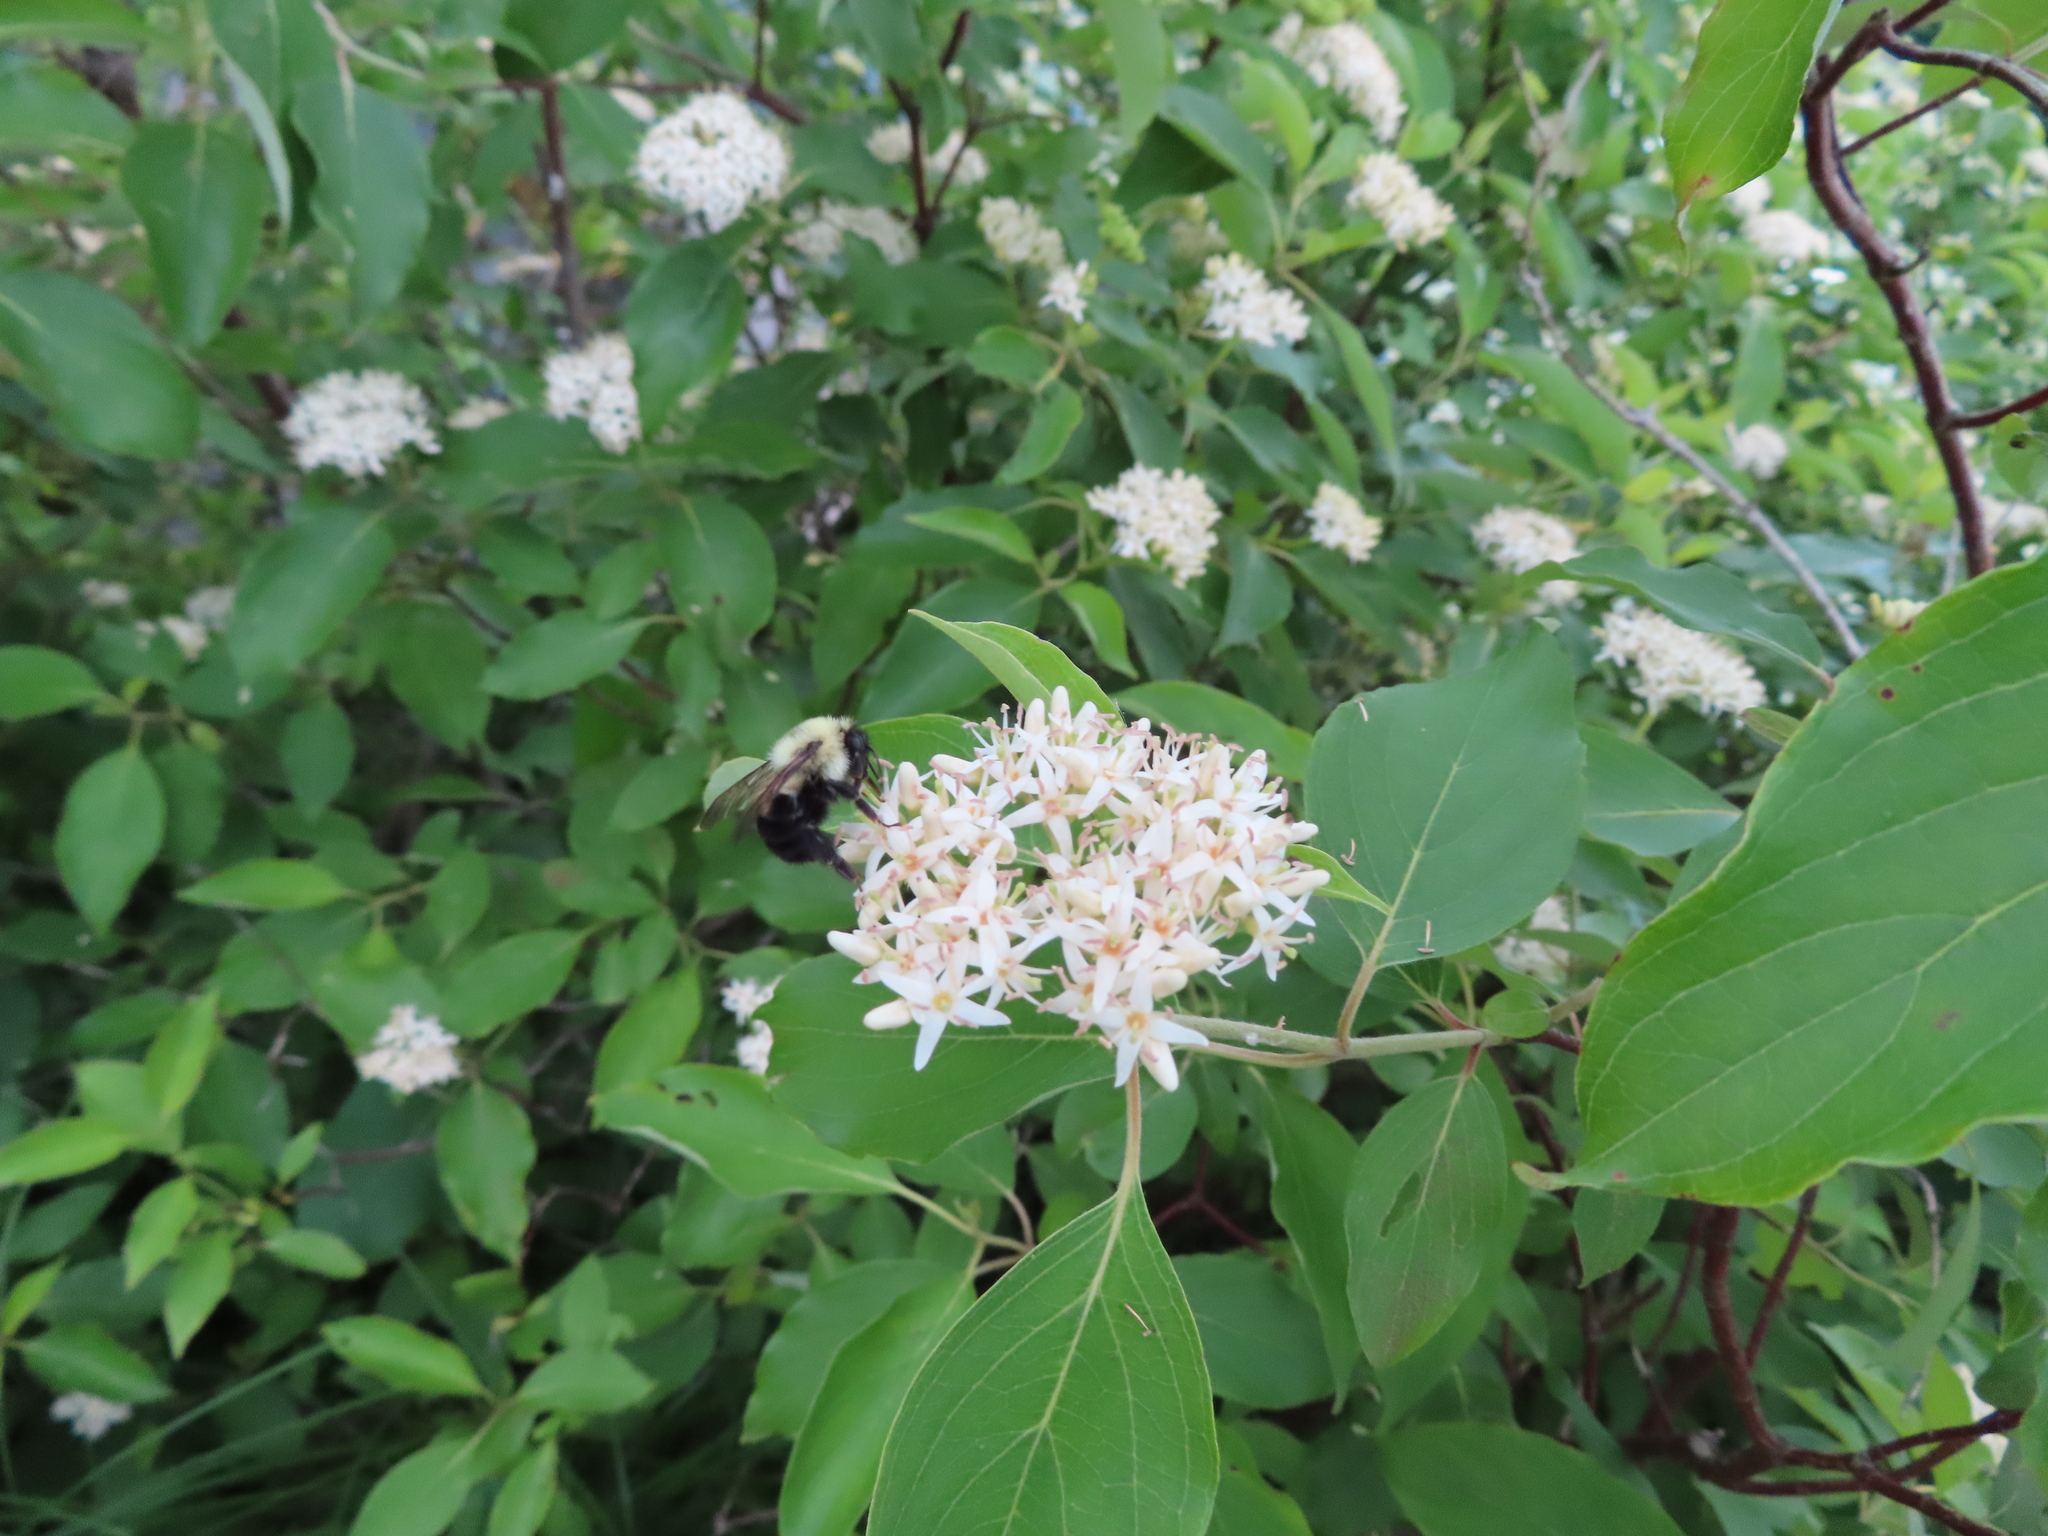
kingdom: Animalia
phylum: Arthropoda
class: Insecta
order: Hymenoptera
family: Apidae
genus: Bombus
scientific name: Bombus bimaculatus
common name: Two-spotted bumble bee
